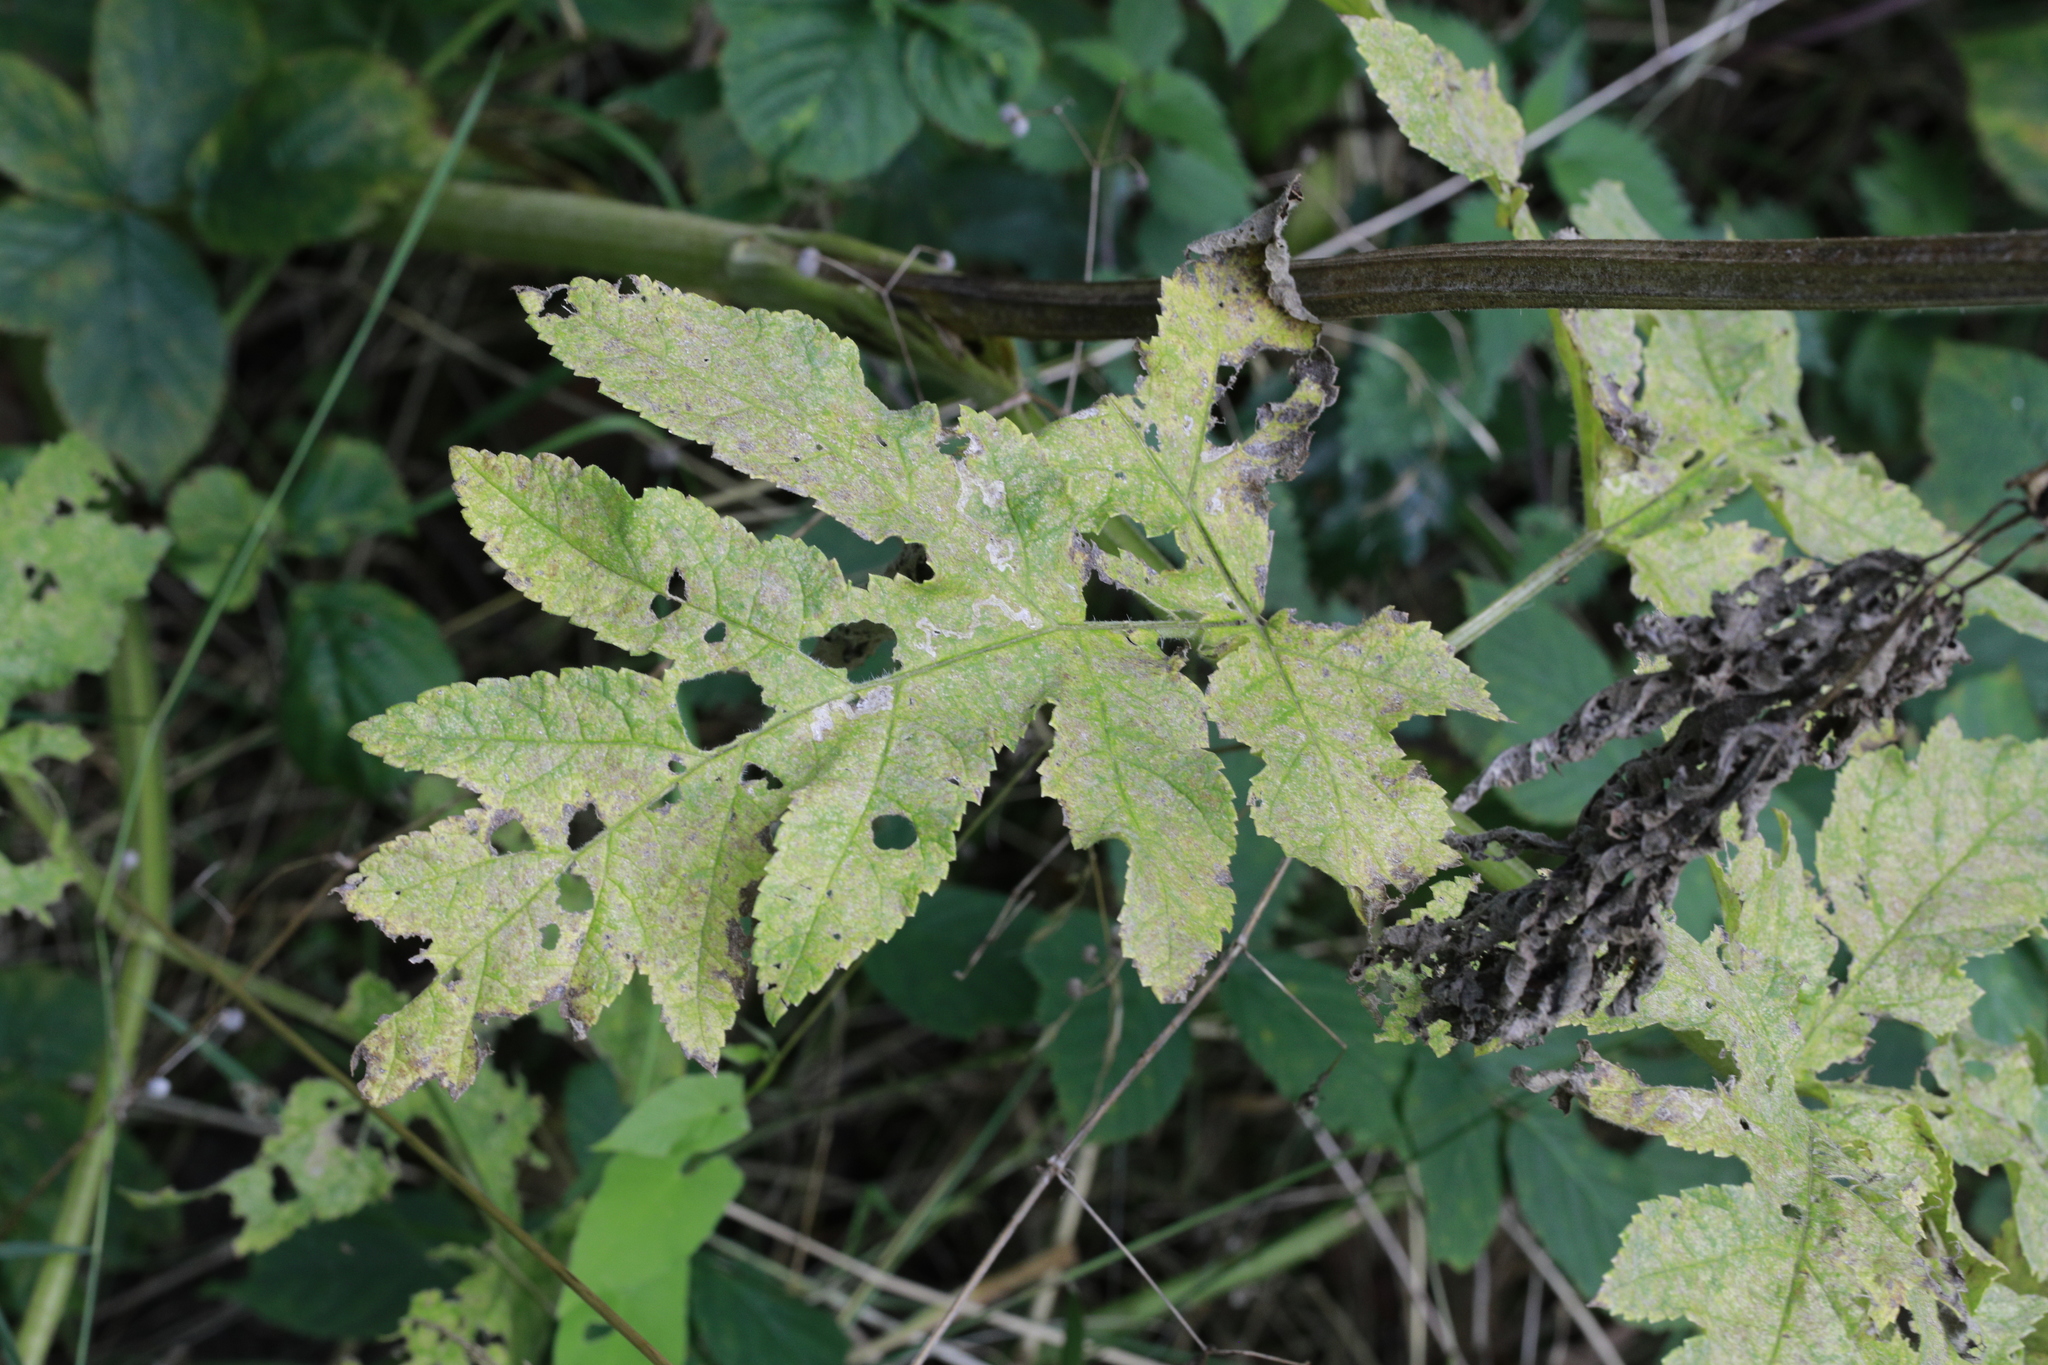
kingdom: Plantae
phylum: Tracheophyta
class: Magnoliopsida
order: Apiales
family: Apiaceae
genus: Heracleum
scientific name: Heracleum sphondylium
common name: Hogweed
